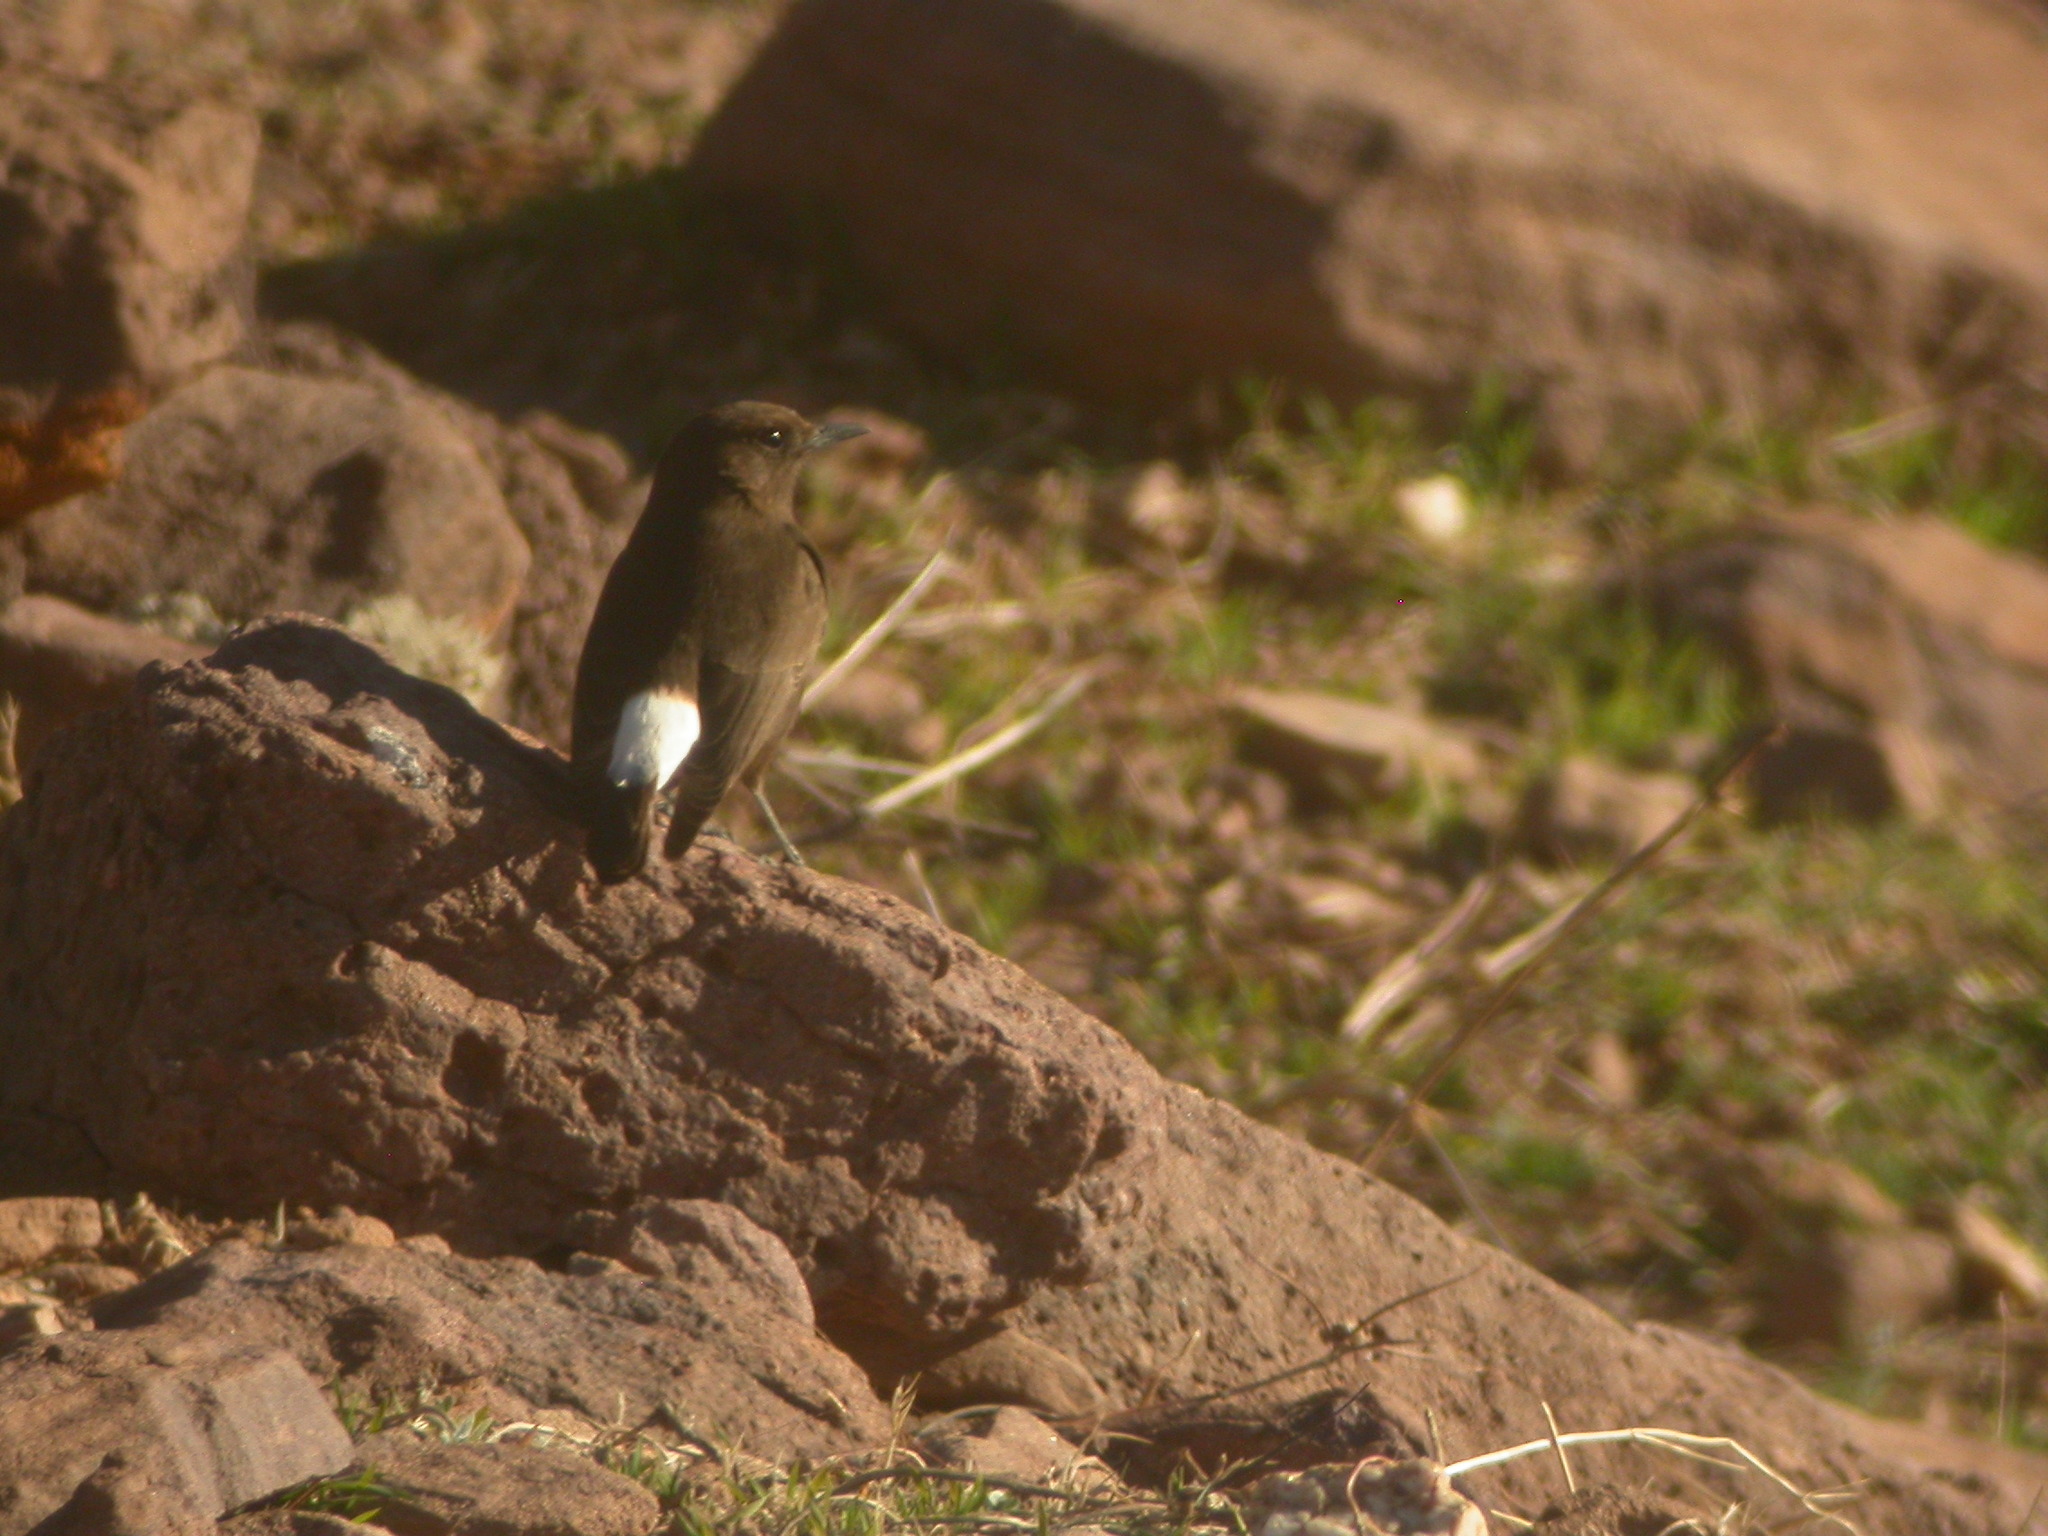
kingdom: Animalia
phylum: Chordata
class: Aves
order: Passeriformes
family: Muscicapidae
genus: Oenanthe
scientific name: Oenanthe leucura
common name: Black wheatear
